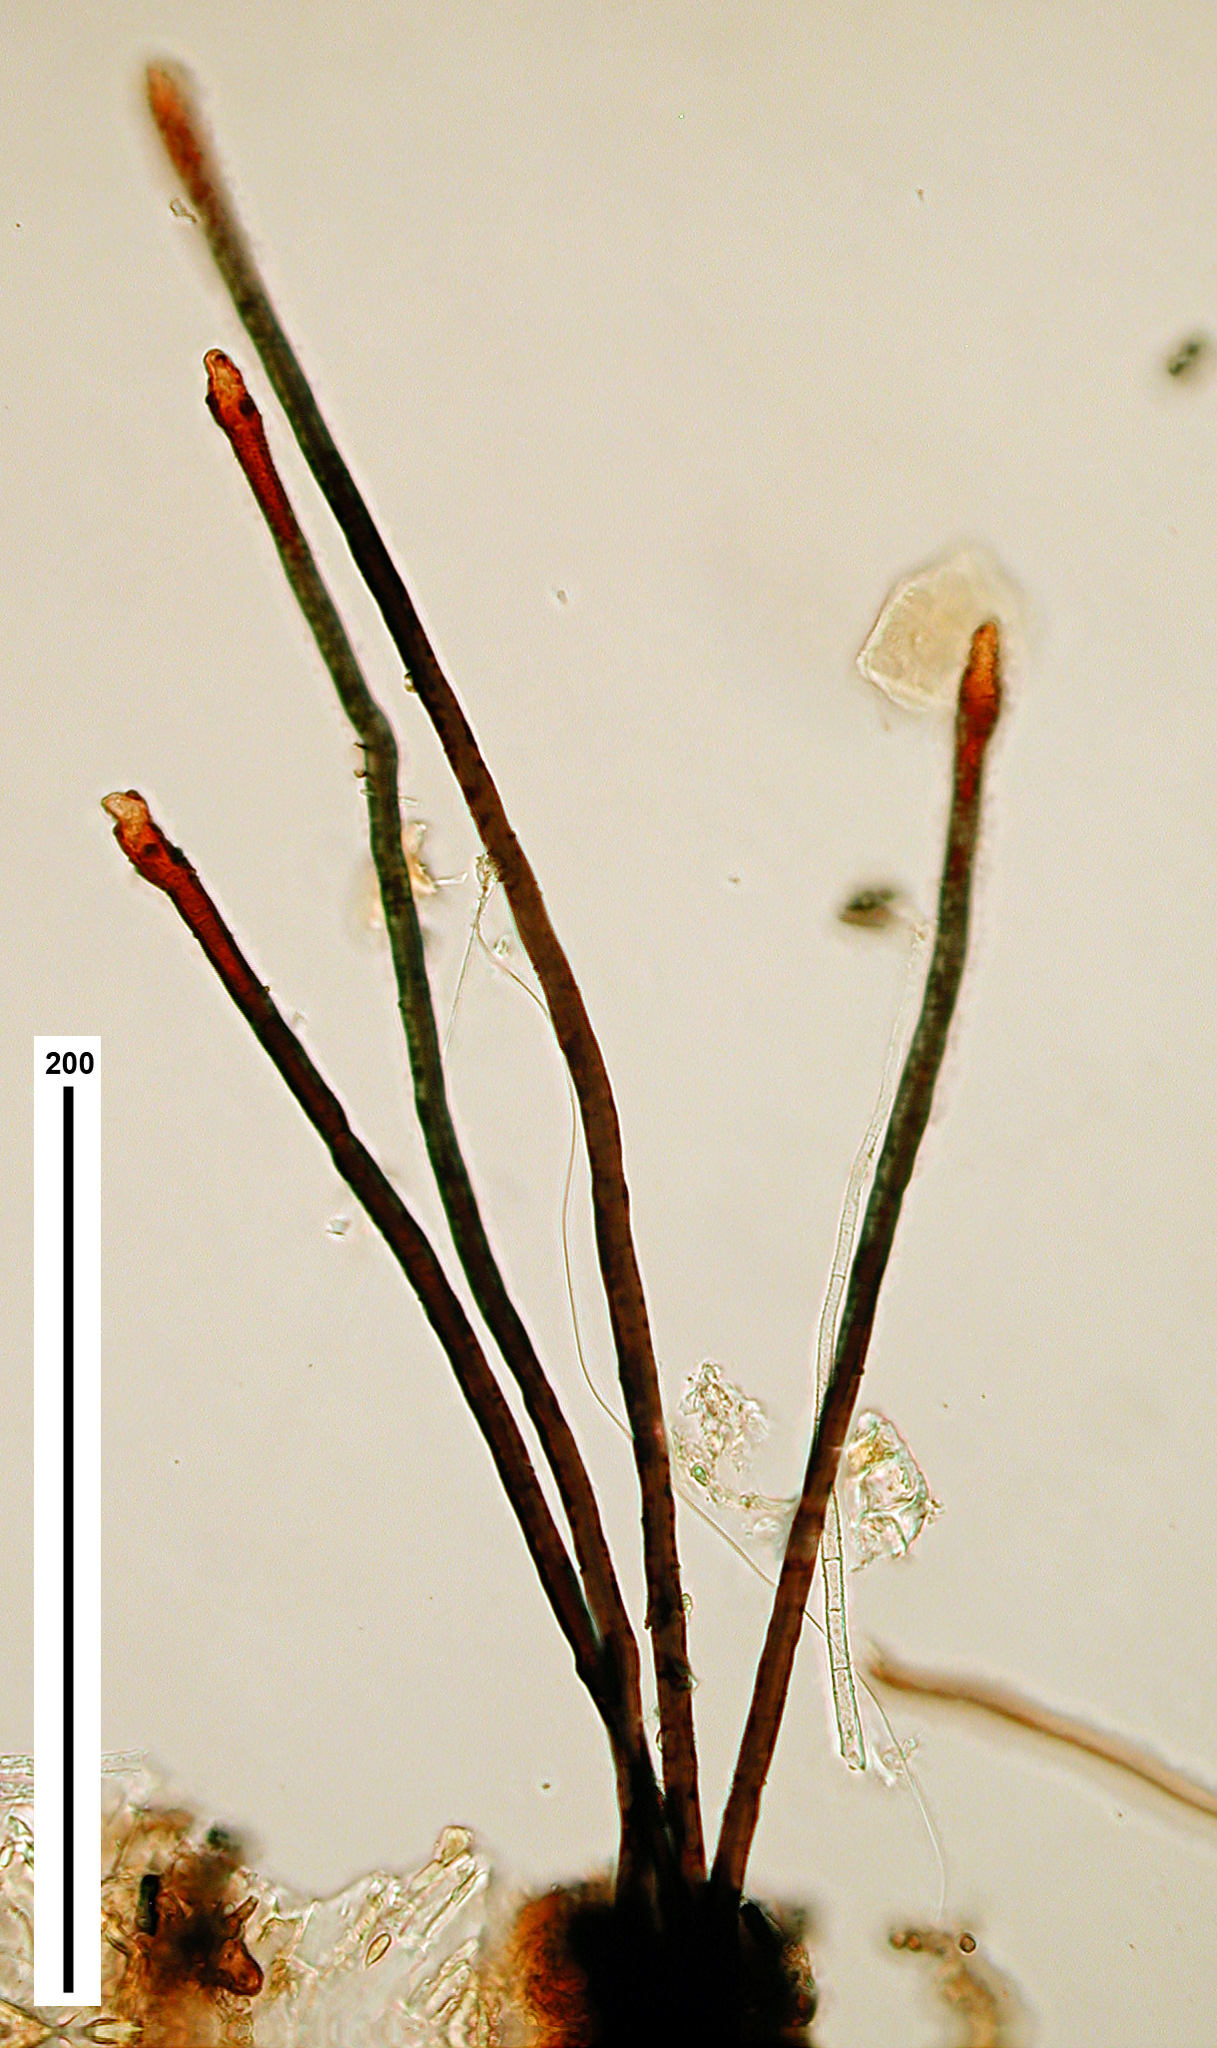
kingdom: Fungi
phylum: Ascomycota
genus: Zebrospora
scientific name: Zebrospora bicolor
